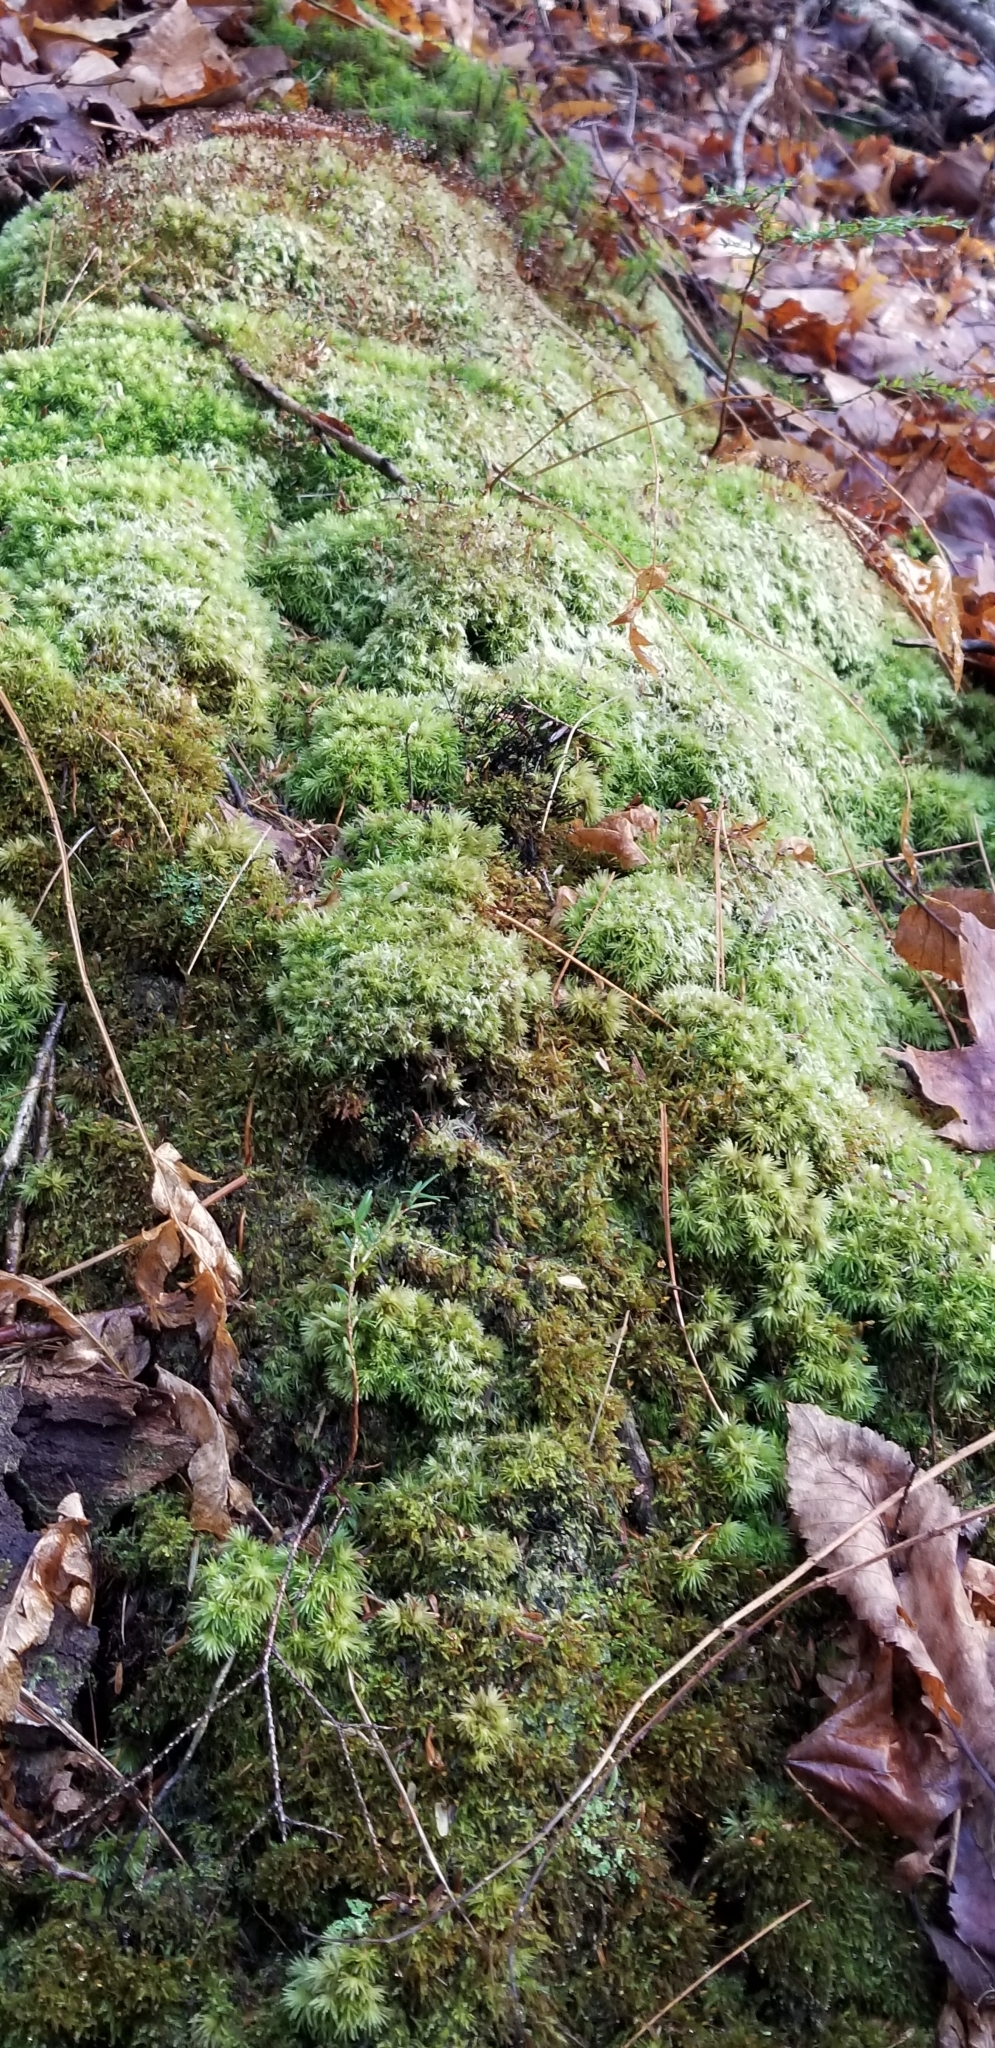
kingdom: Plantae
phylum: Bryophyta
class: Bryopsida
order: Dicranales
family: Leucobryaceae
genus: Leucobryum
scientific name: Leucobryum glaucum
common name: Large white-moss
